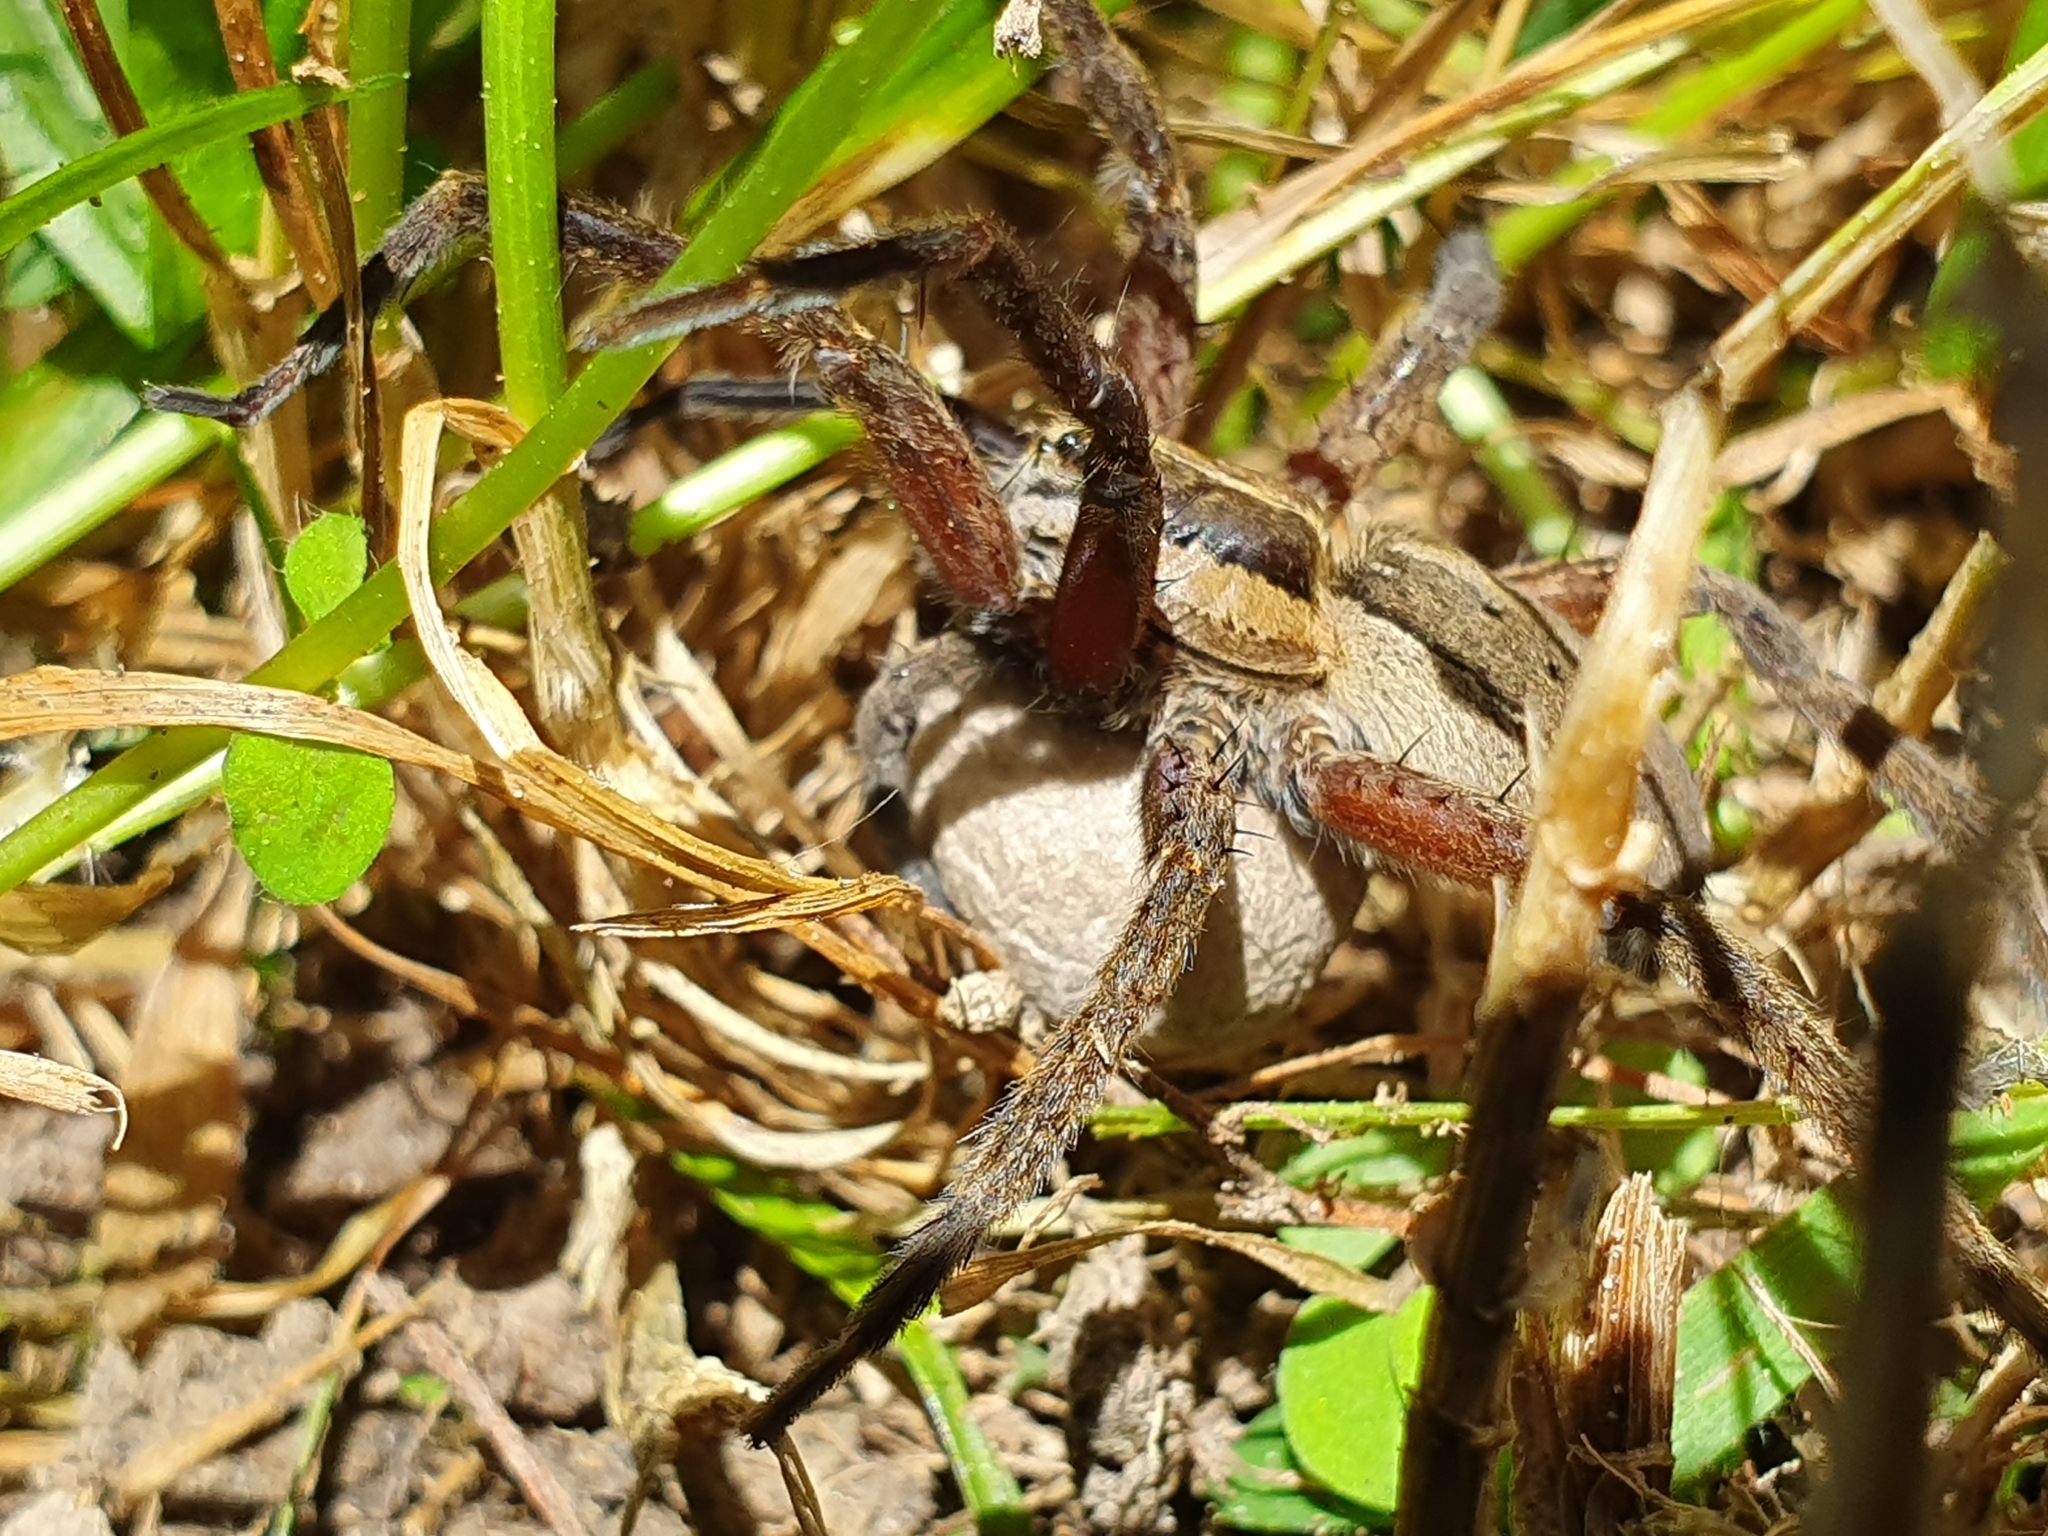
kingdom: Animalia
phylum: Arthropoda
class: Arachnida
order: Araneae
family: Pisauridae
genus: Dolomedes
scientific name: Dolomedes minor
